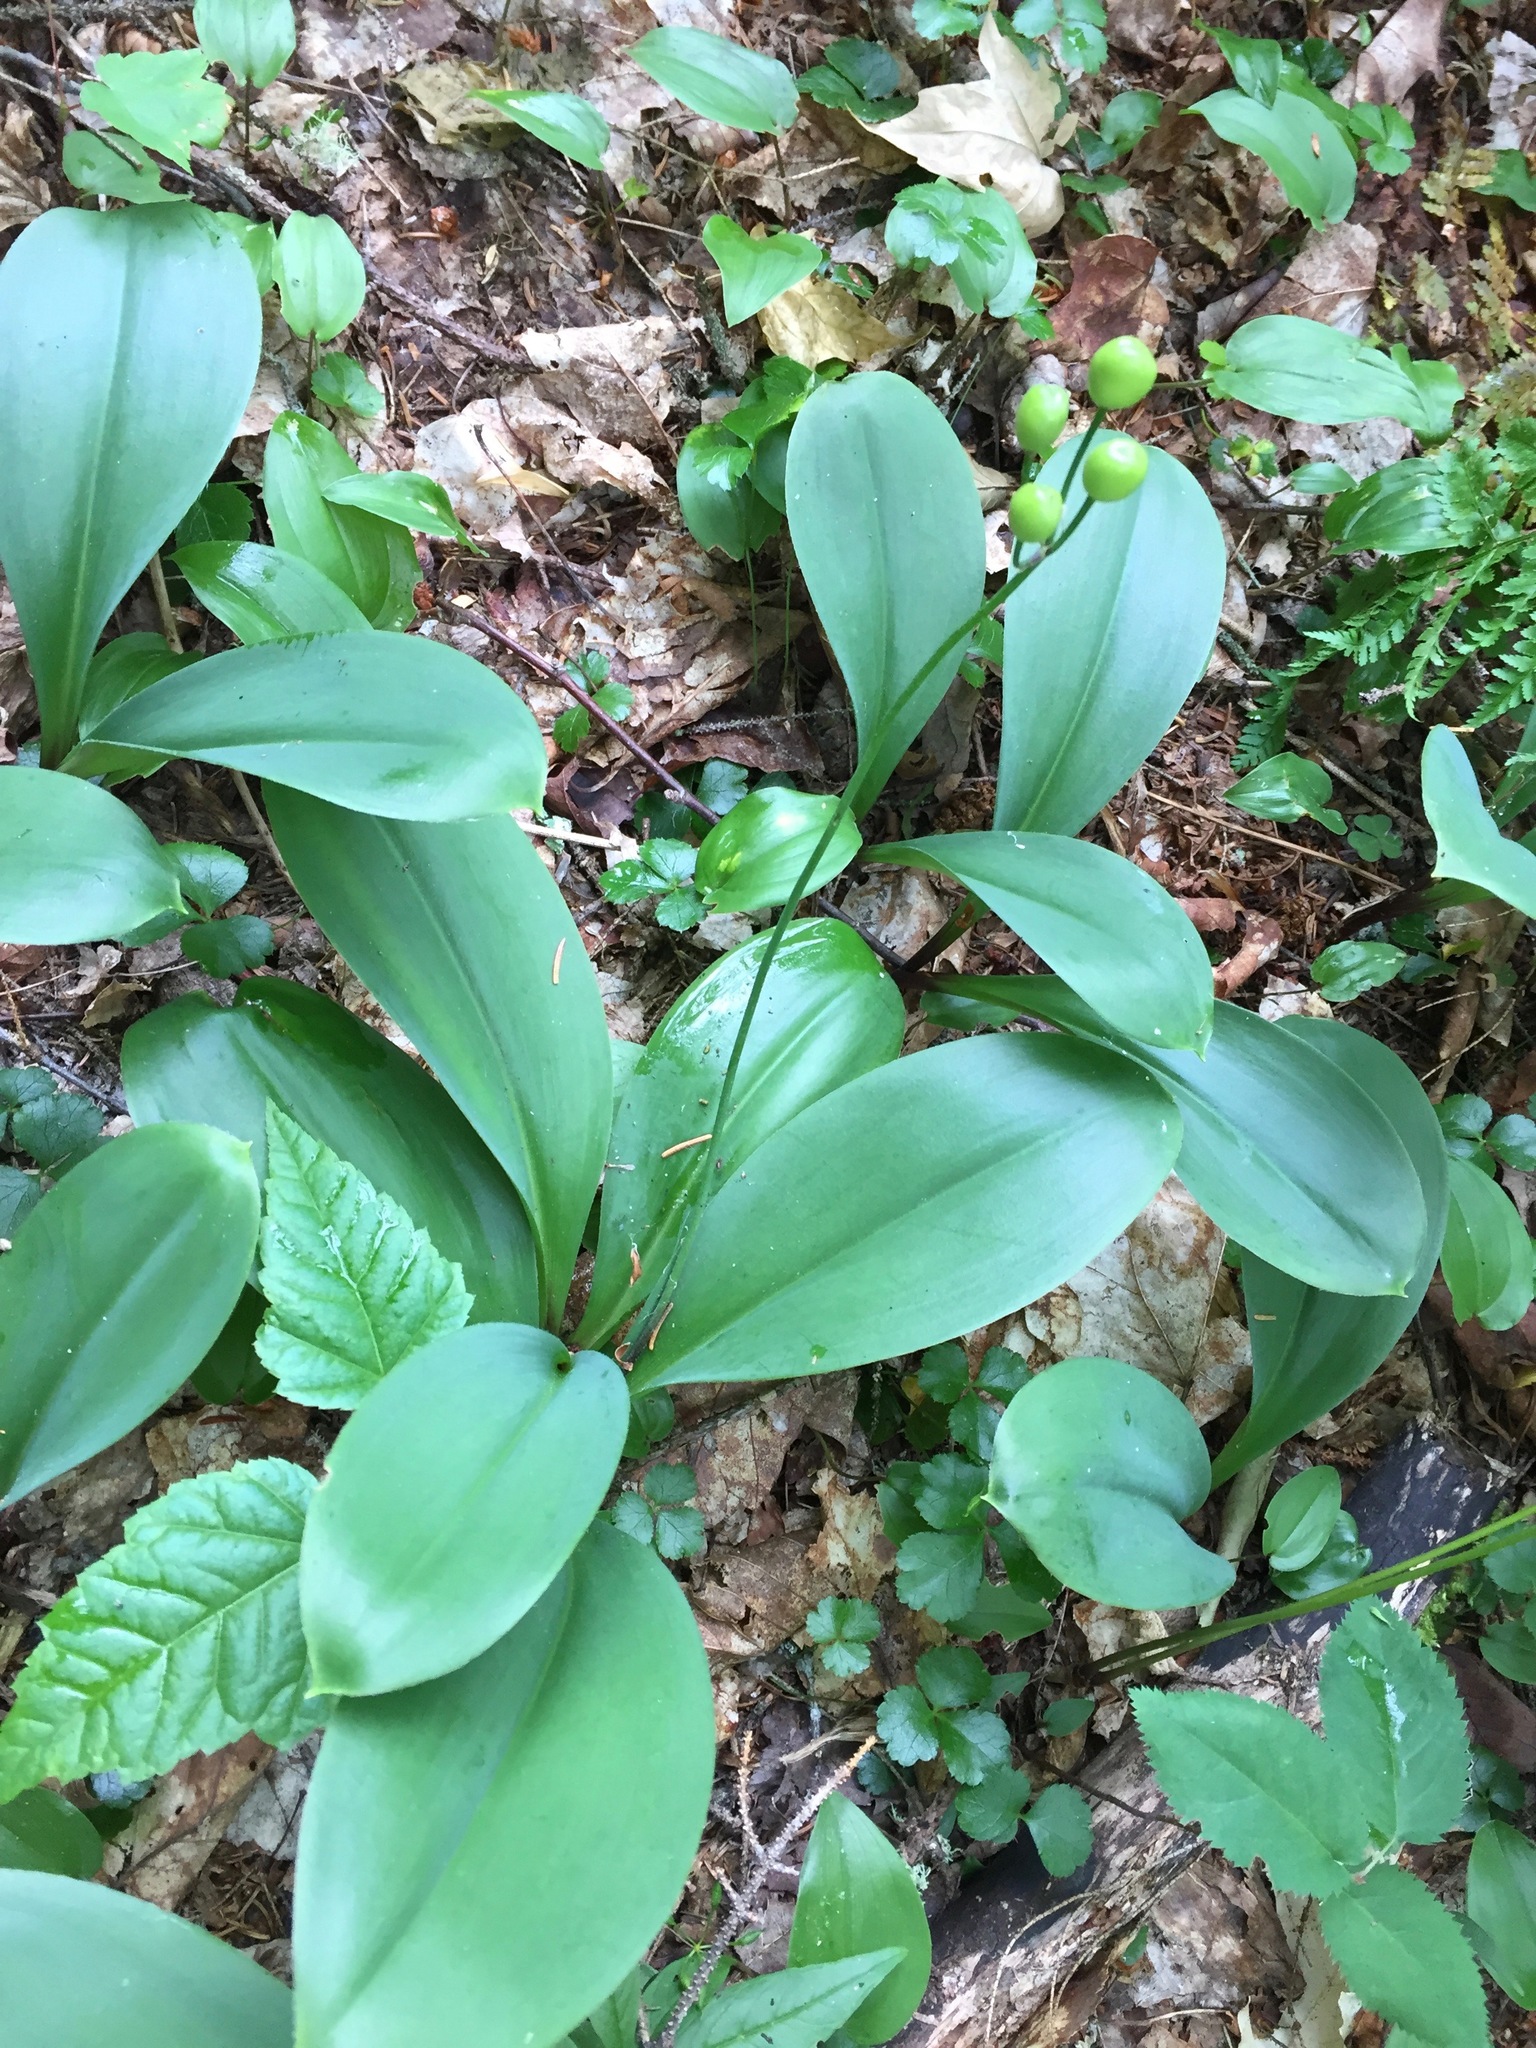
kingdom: Plantae
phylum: Tracheophyta
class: Liliopsida
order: Liliales
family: Liliaceae
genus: Clintonia
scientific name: Clintonia borealis
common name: Yellow clintonia
